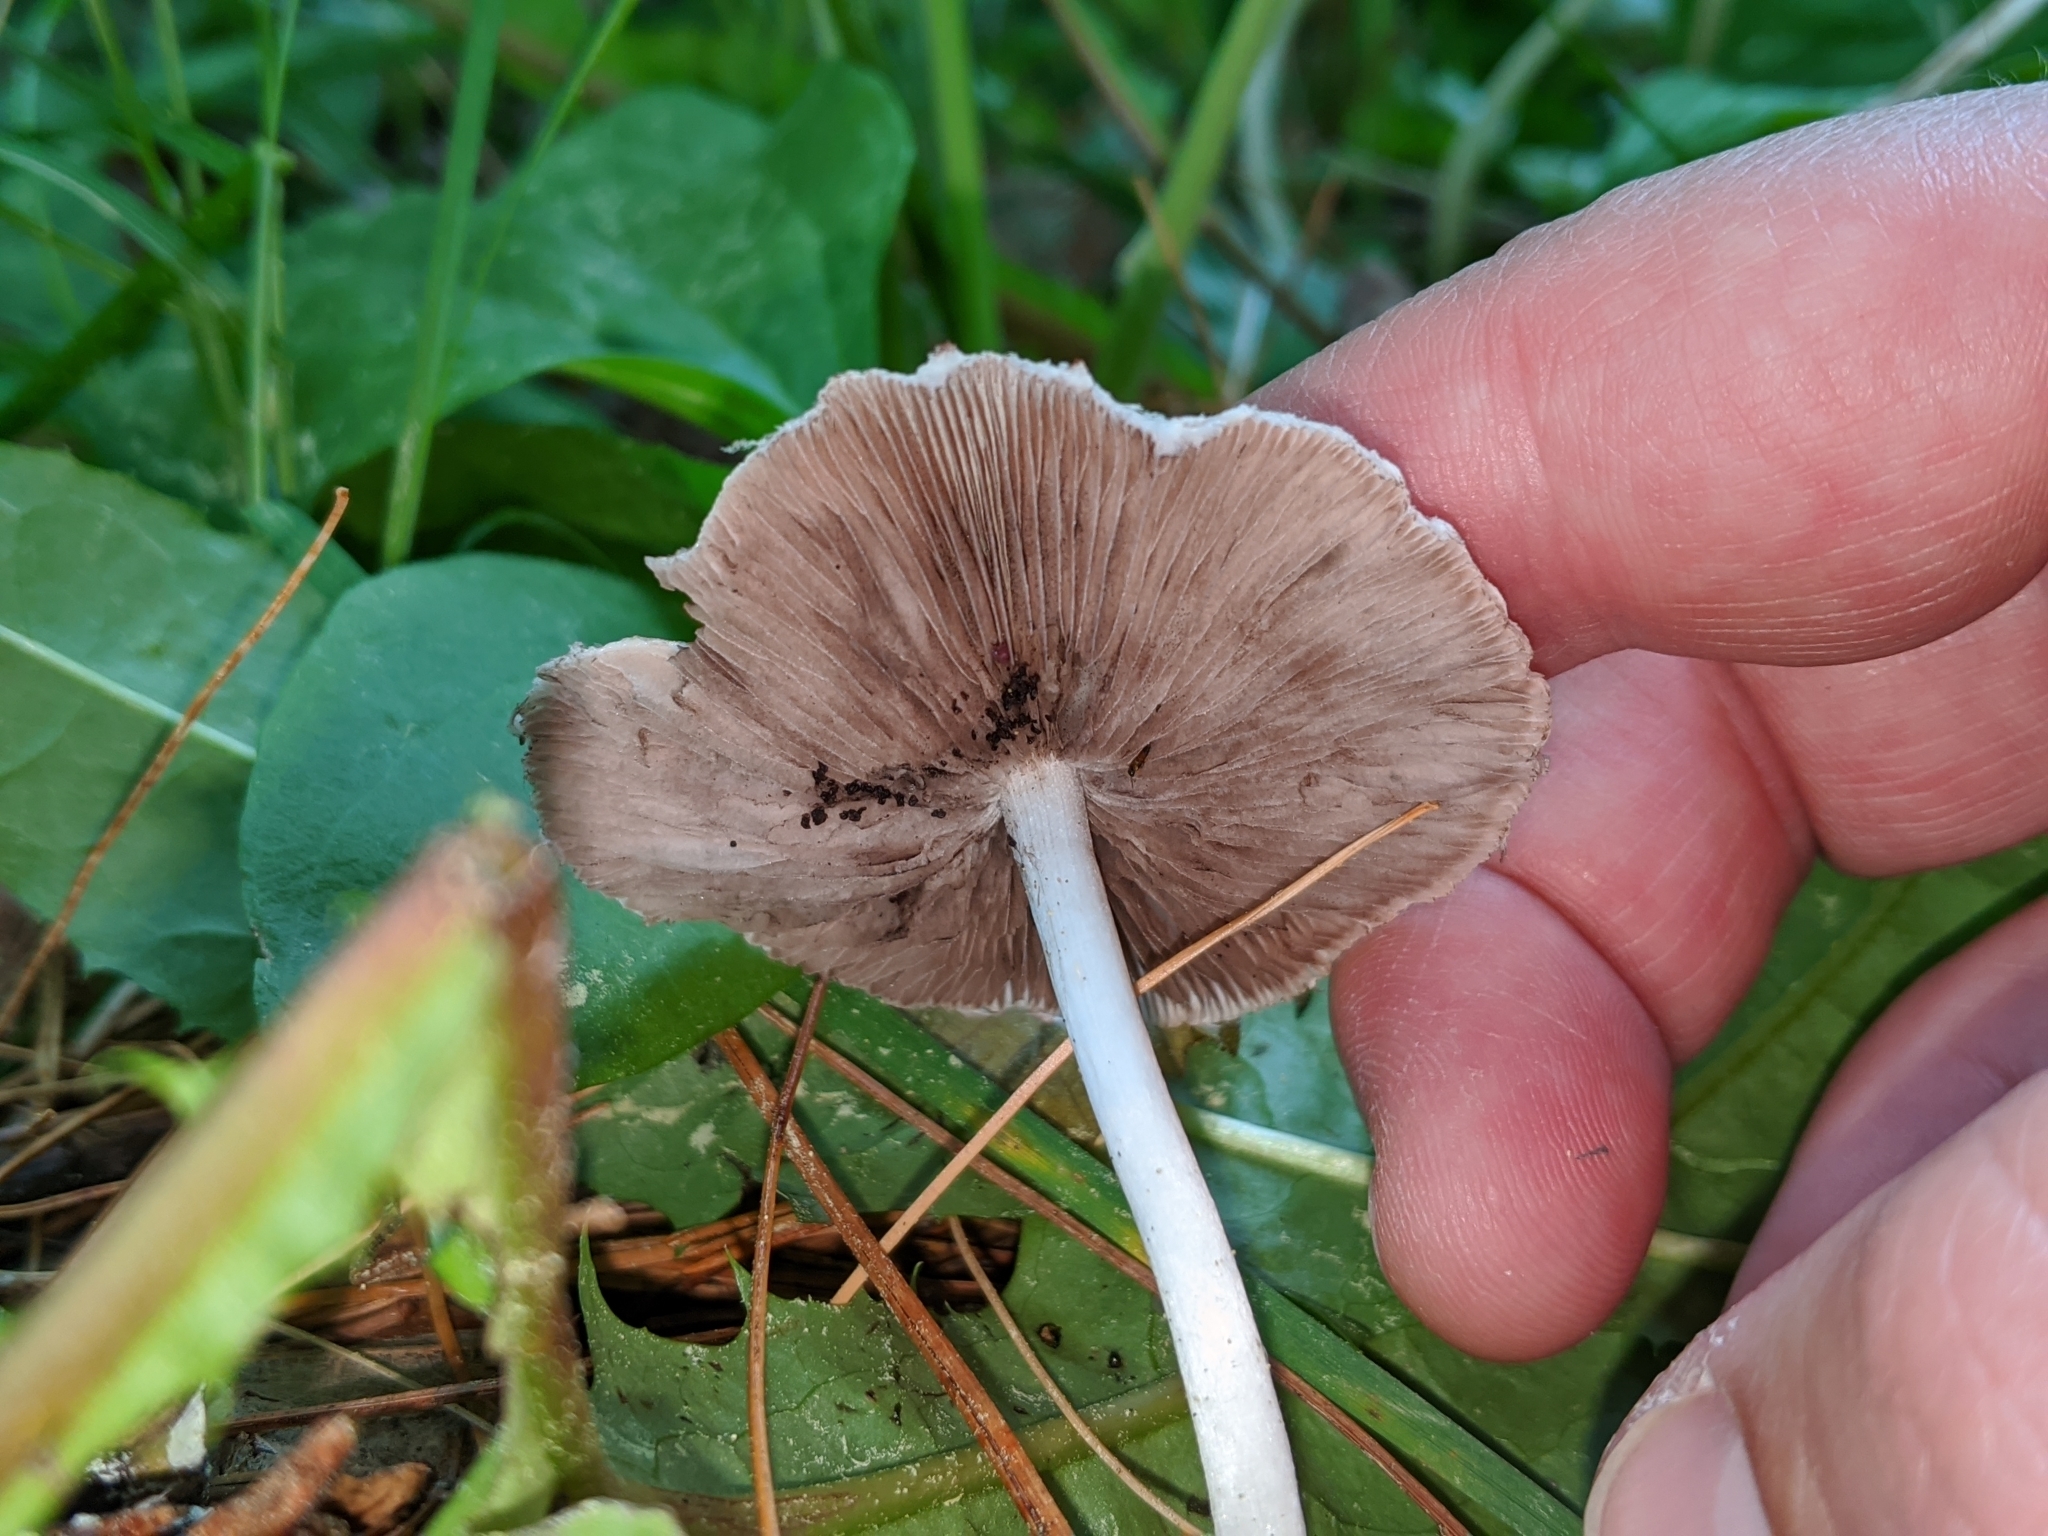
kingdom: Fungi
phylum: Basidiomycota
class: Agaricomycetes
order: Agaricales
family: Psathyrellaceae
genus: Candolleomyces
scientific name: Candolleomyces candolleanus
